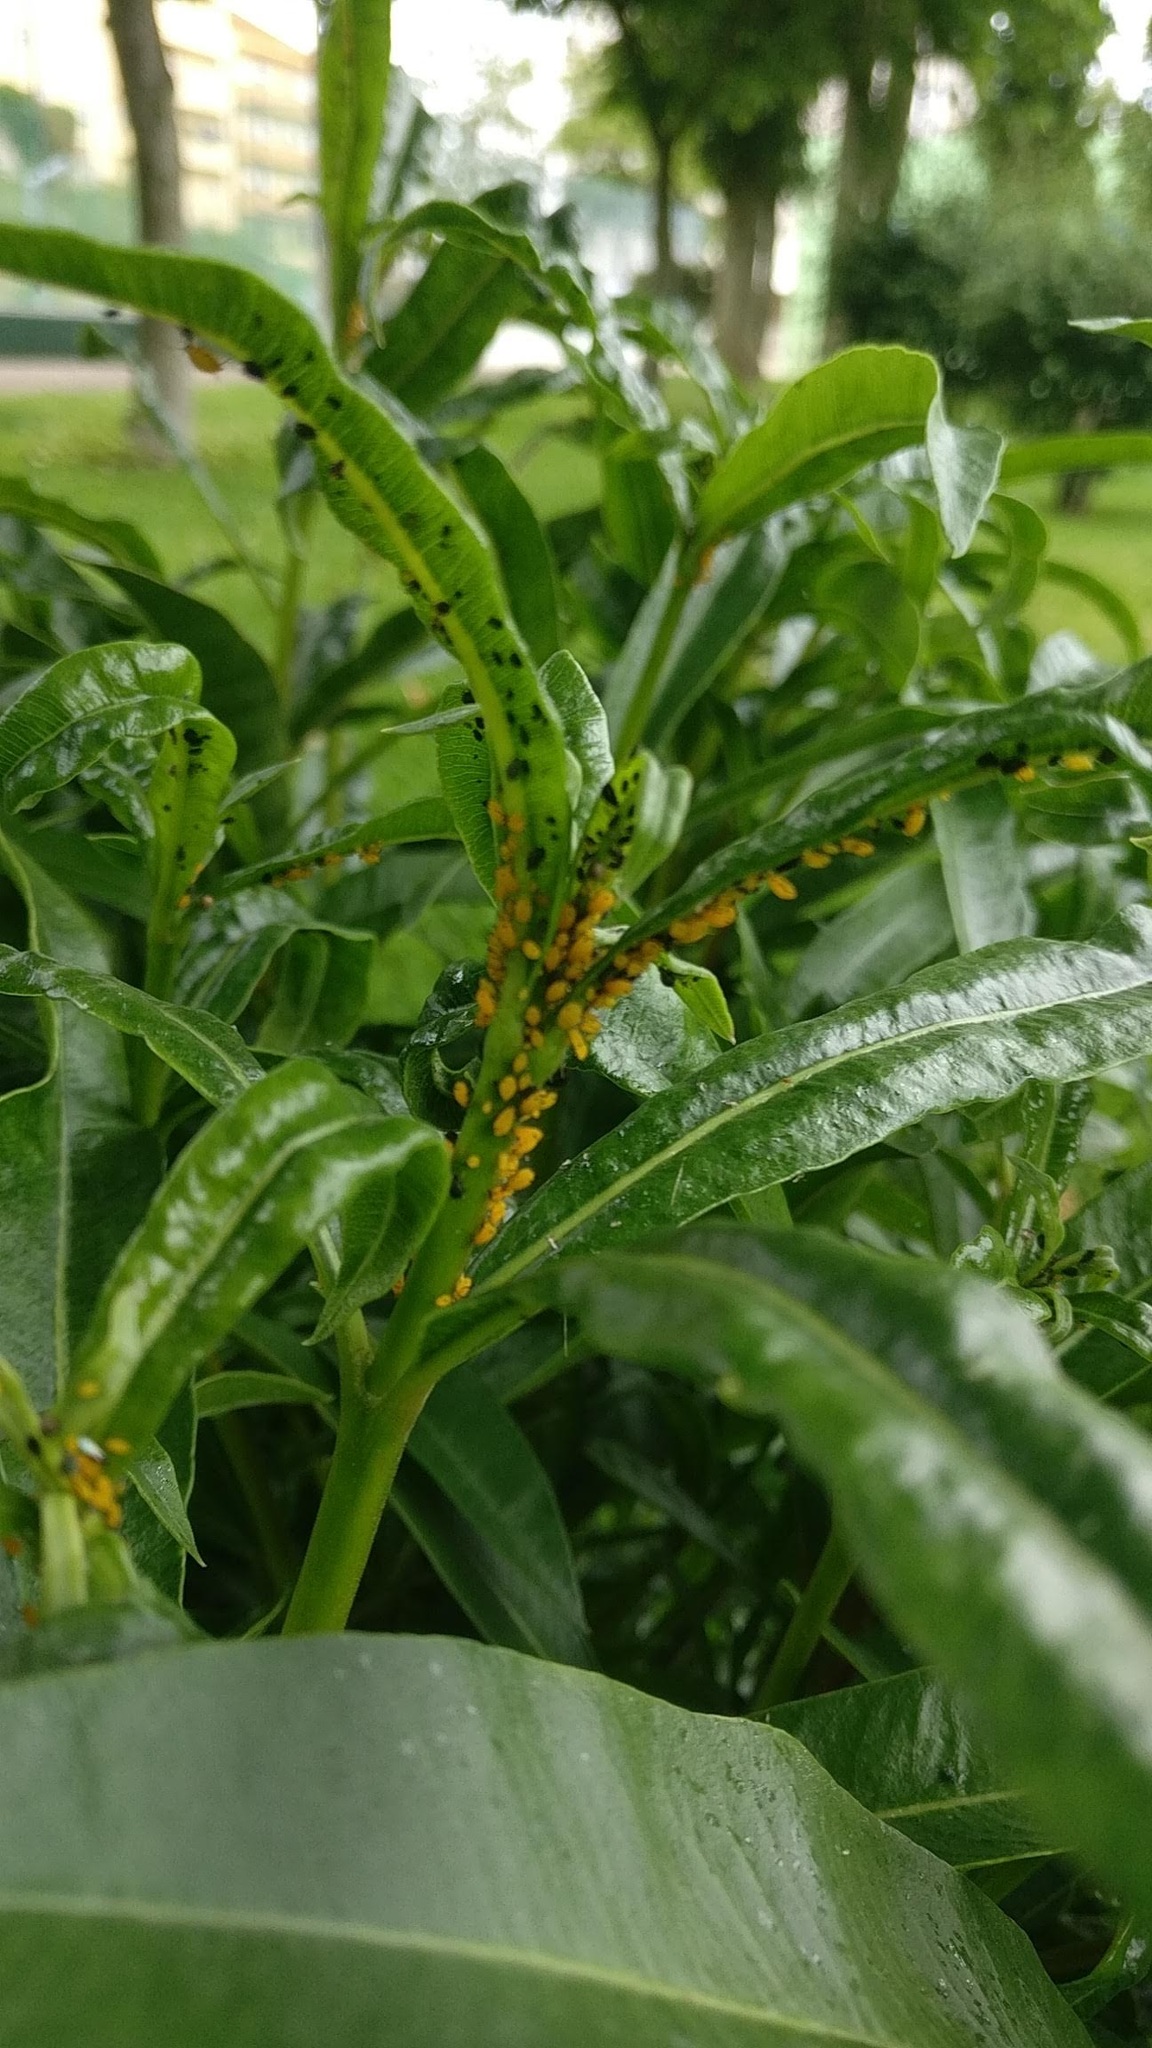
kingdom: Animalia
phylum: Arthropoda
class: Insecta
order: Hemiptera
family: Aphididae
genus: Aphis
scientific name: Aphis nerii
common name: Oleander aphid
